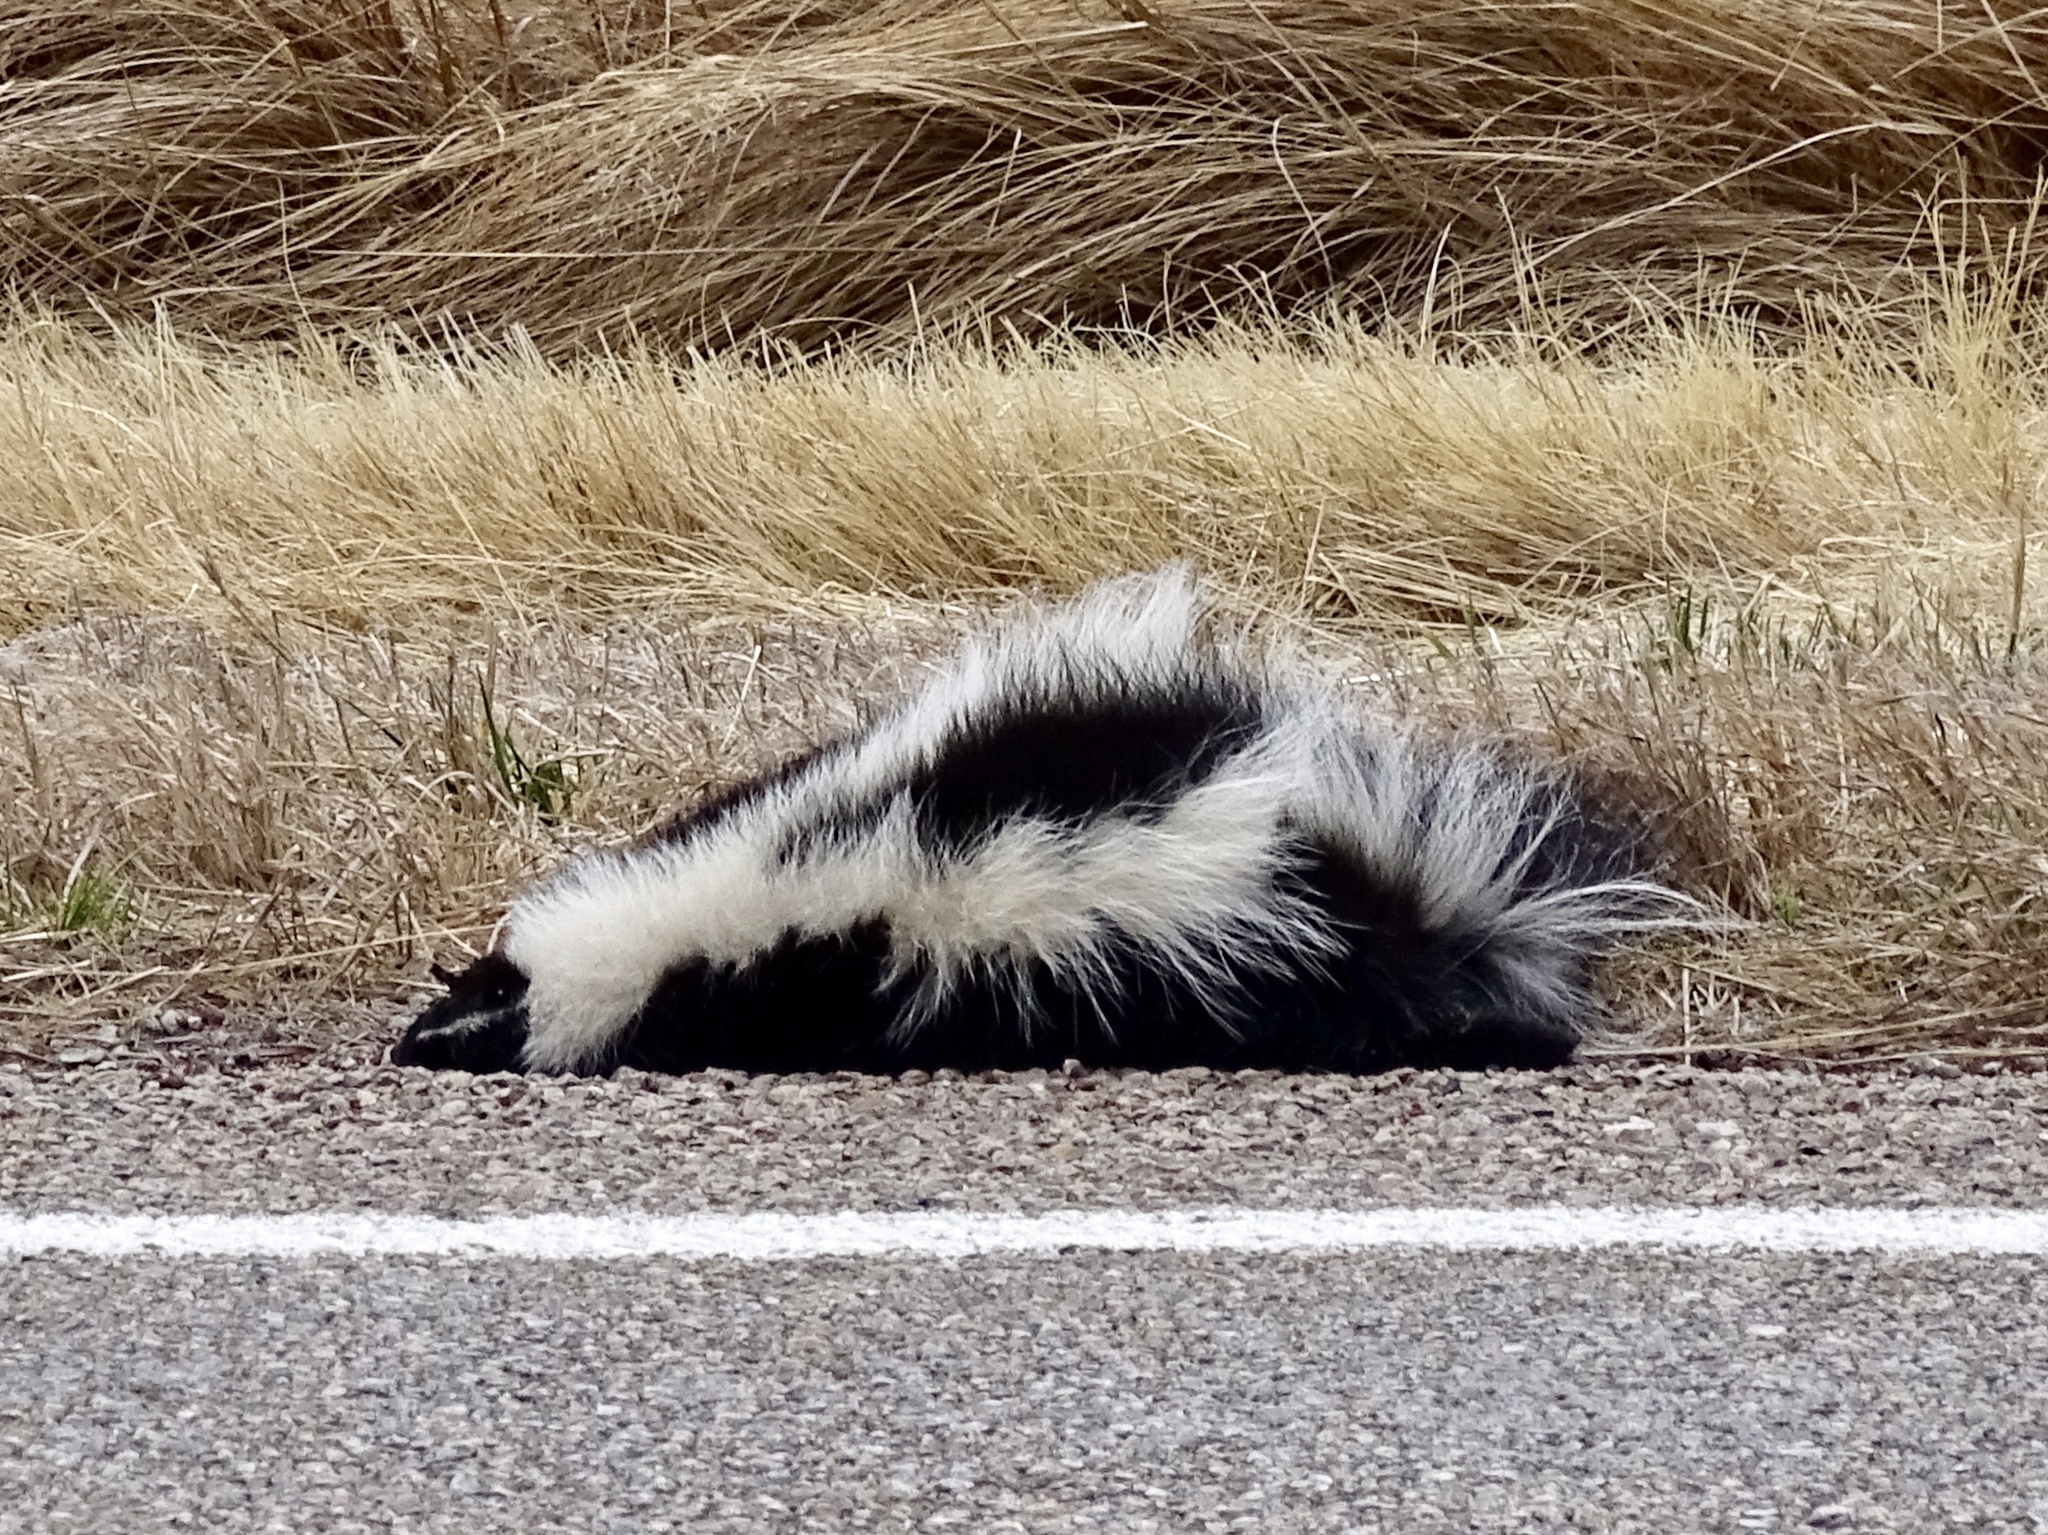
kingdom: Animalia
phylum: Chordata
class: Mammalia
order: Carnivora
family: Mephitidae
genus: Mephitis
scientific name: Mephitis mephitis
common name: Striped skunk
